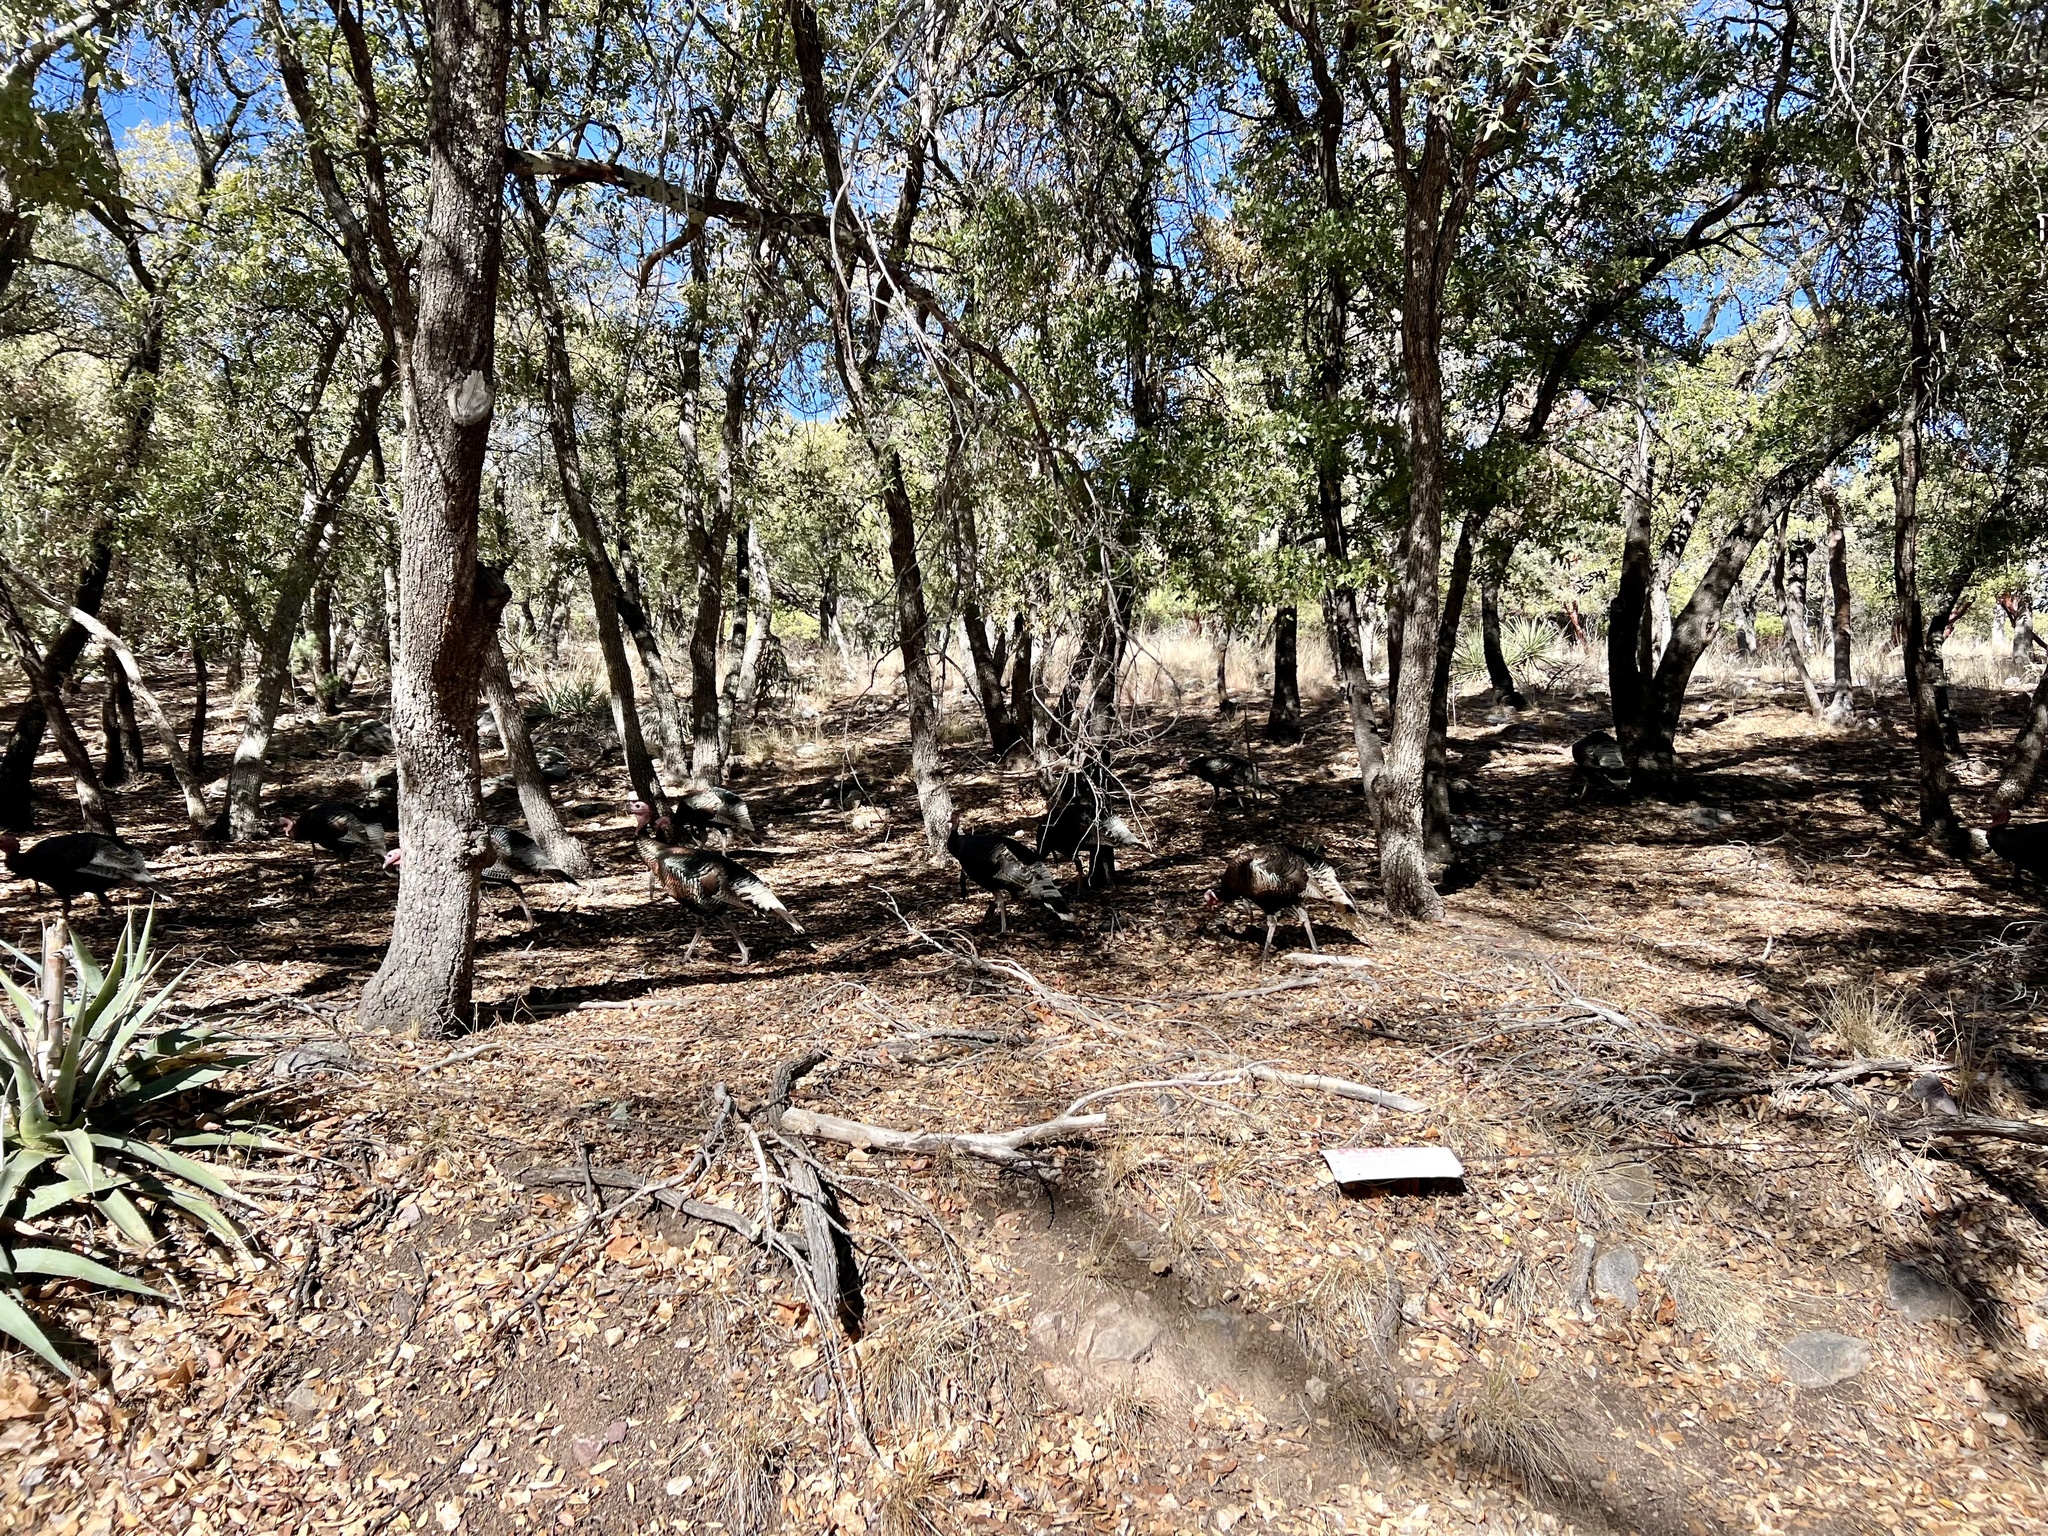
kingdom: Animalia
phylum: Chordata
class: Aves
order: Galliformes
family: Phasianidae
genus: Meleagris
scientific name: Meleagris gallopavo
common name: Wild turkey
